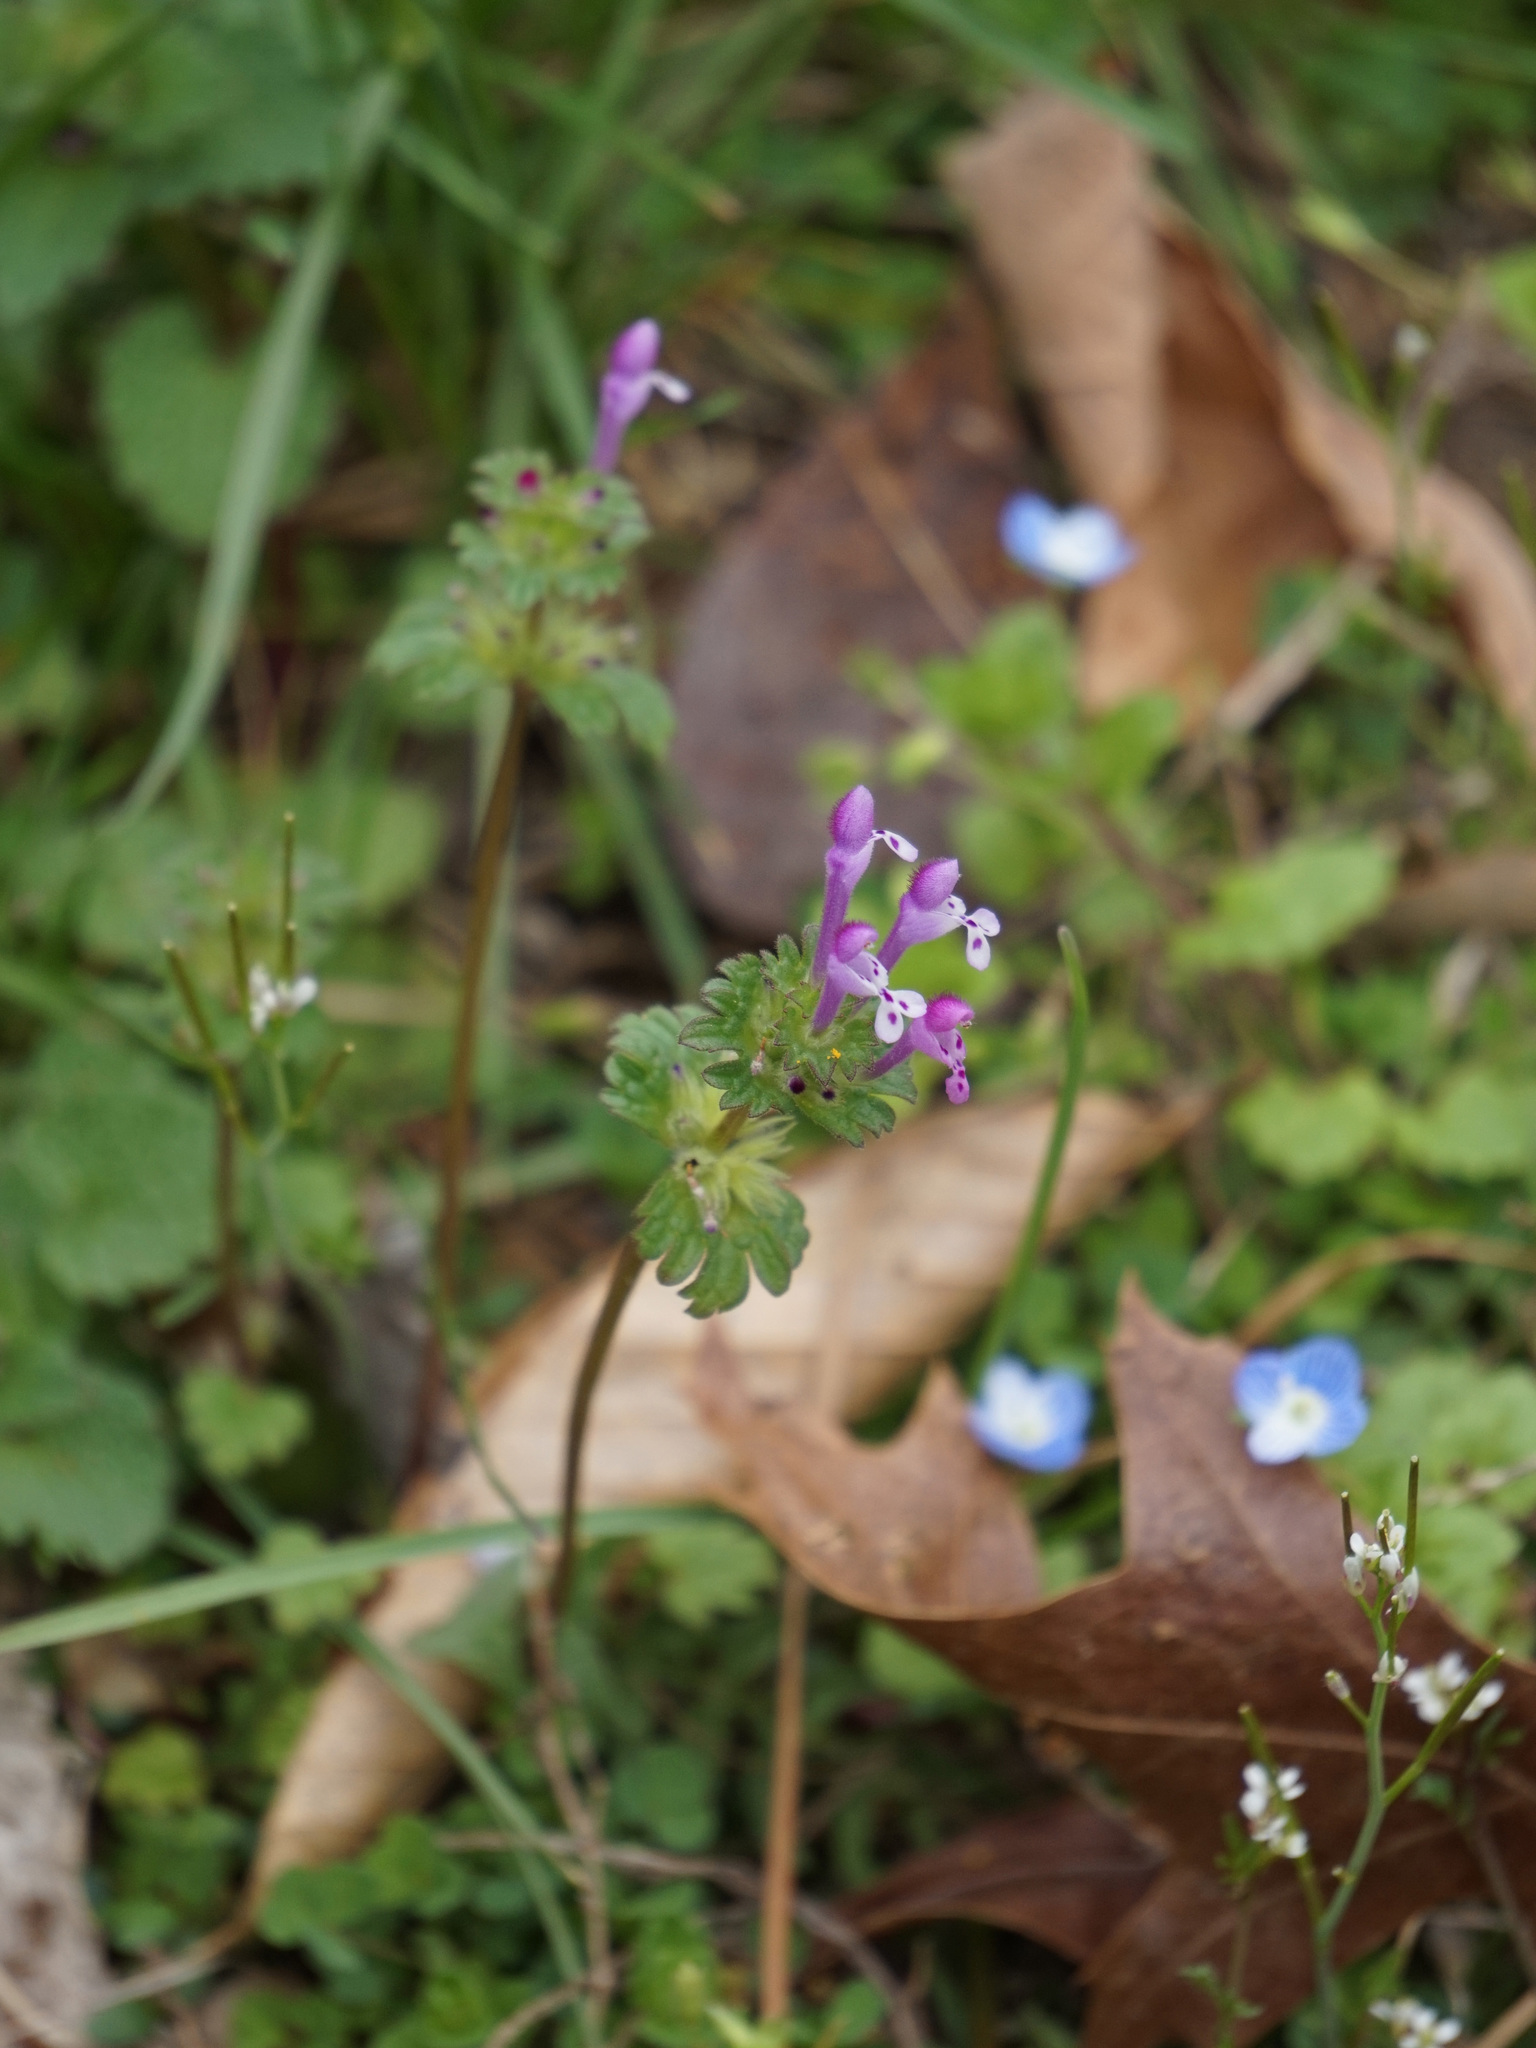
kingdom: Plantae
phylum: Tracheophyta
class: Magnoliopsida
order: Lamiales
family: Lamiaceae
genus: Lamium
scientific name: Lamium amplexicaule
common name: Henbit dead-nettle
